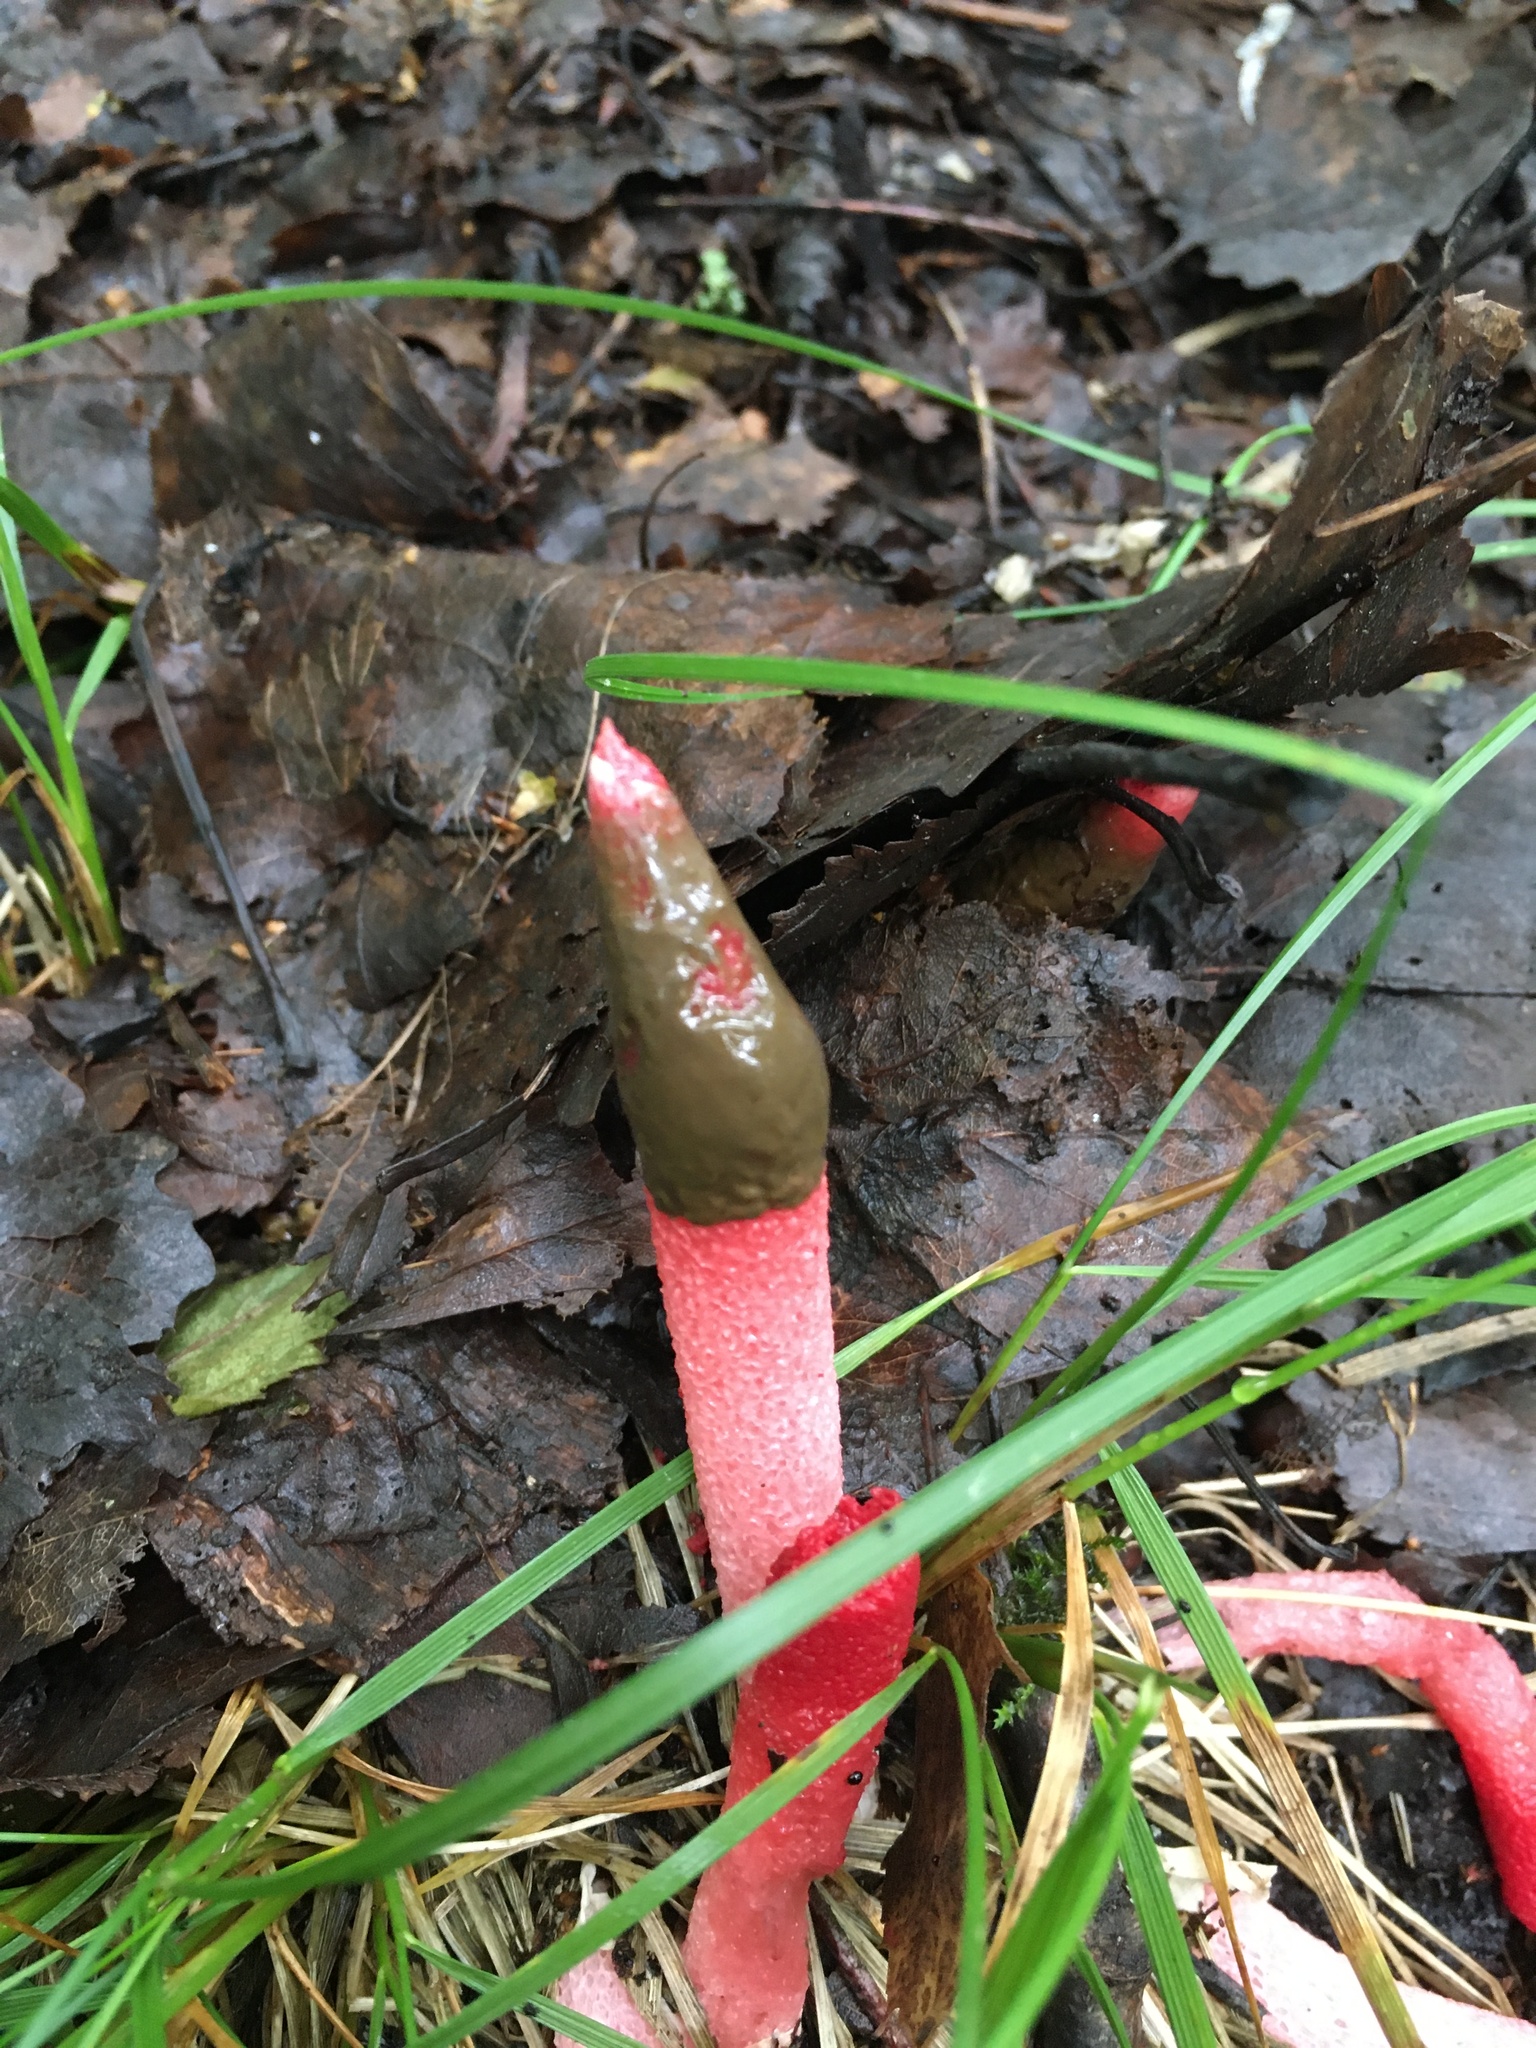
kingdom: Fungi
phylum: Basidiomycota
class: Agaricomycetes
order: Phallales
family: Phallaceae
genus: Mutinus
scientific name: Mutinus ravenelii
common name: Red stinkhorn
